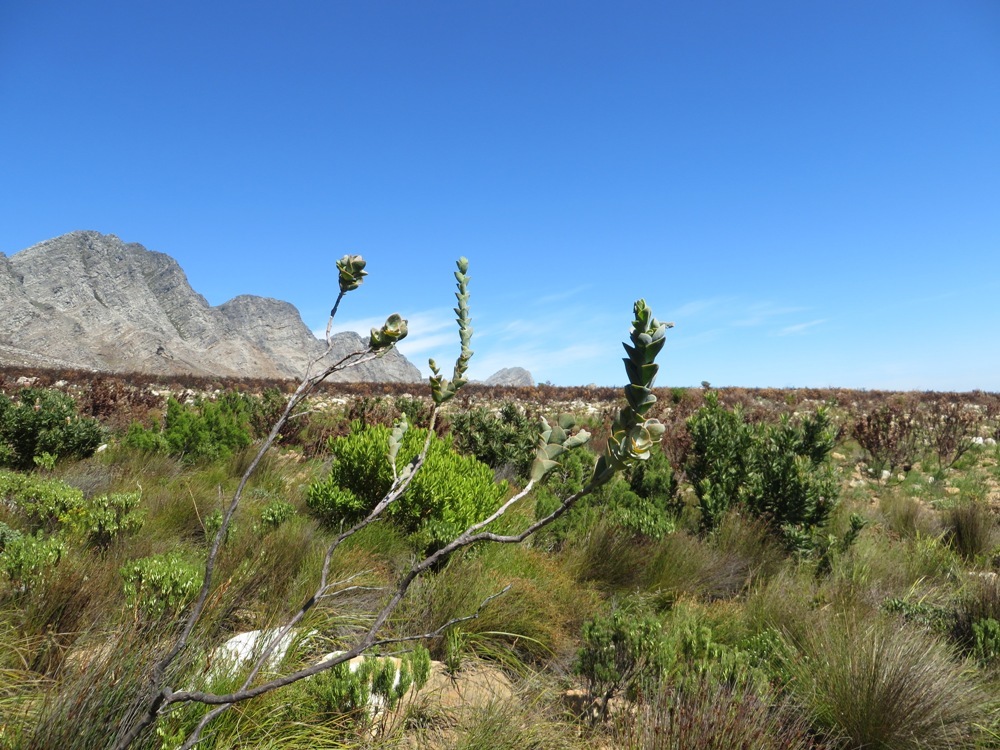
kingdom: Plantae
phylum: Tracheophyta
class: Magnoliopsida
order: Santalales
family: Thesiaceae
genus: Thesium
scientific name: Thesium euphorbioides
